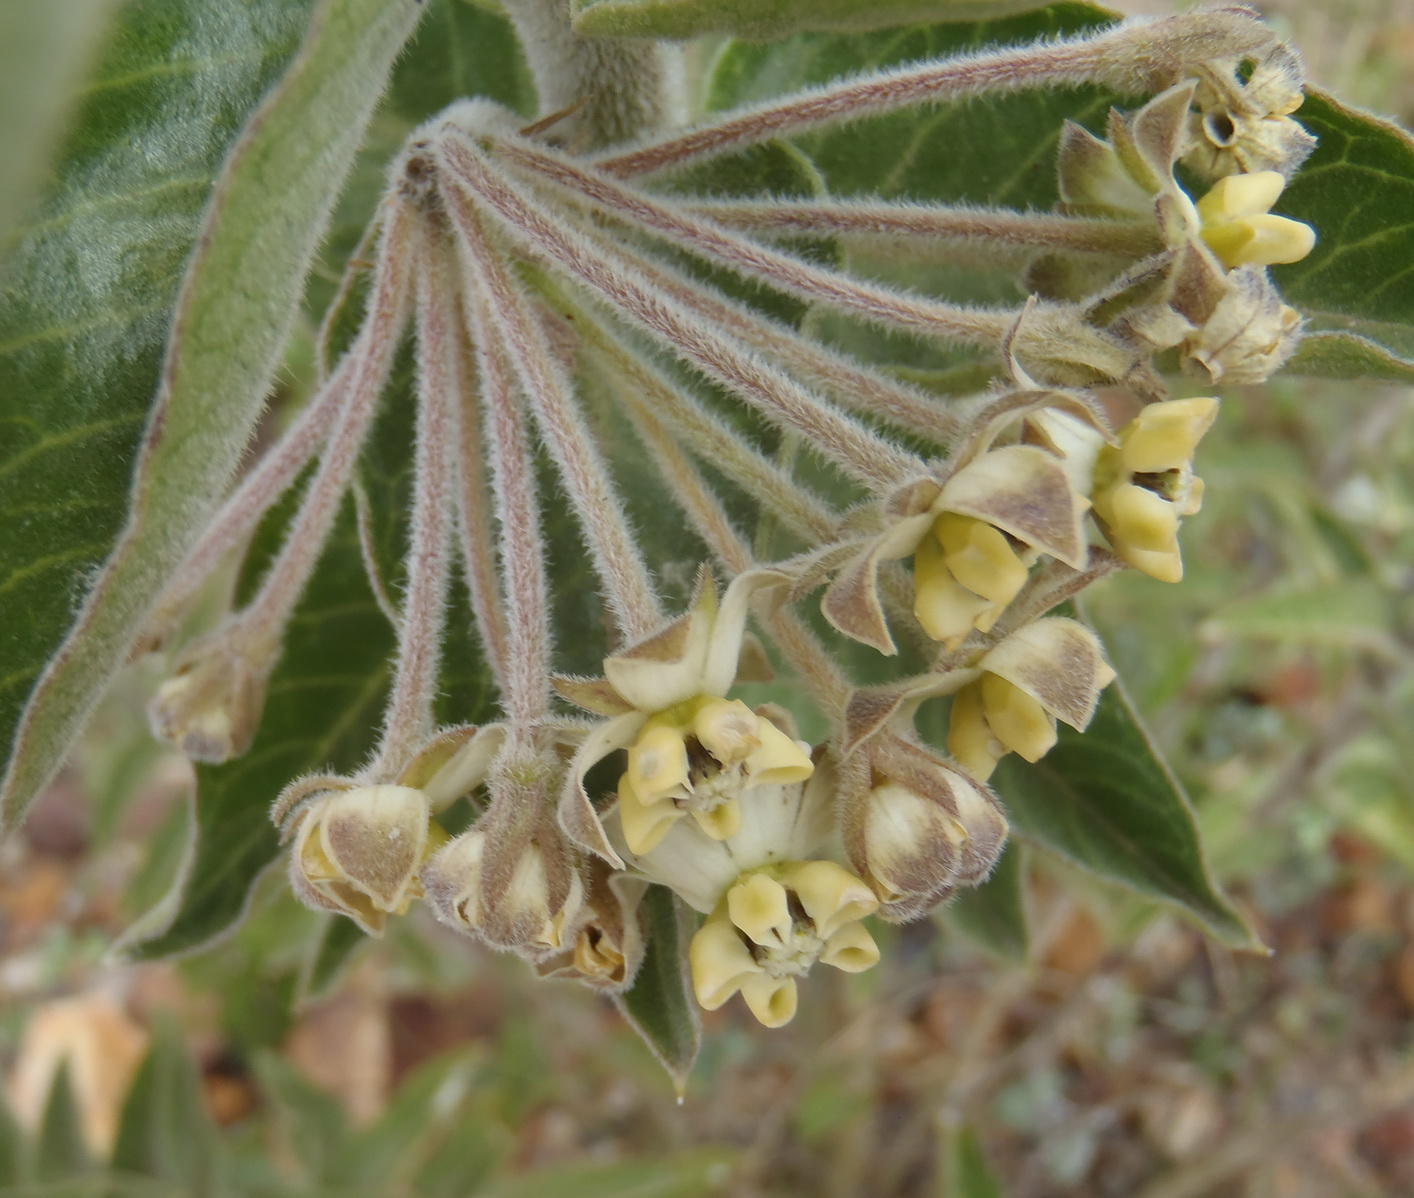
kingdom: Plantae
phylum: Tracheophyta
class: Magnoliopsida
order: Gentianales
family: Apocynaceae
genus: Gomphocarpus
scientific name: Gomphocarpus cancellatus
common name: Wild cotton
